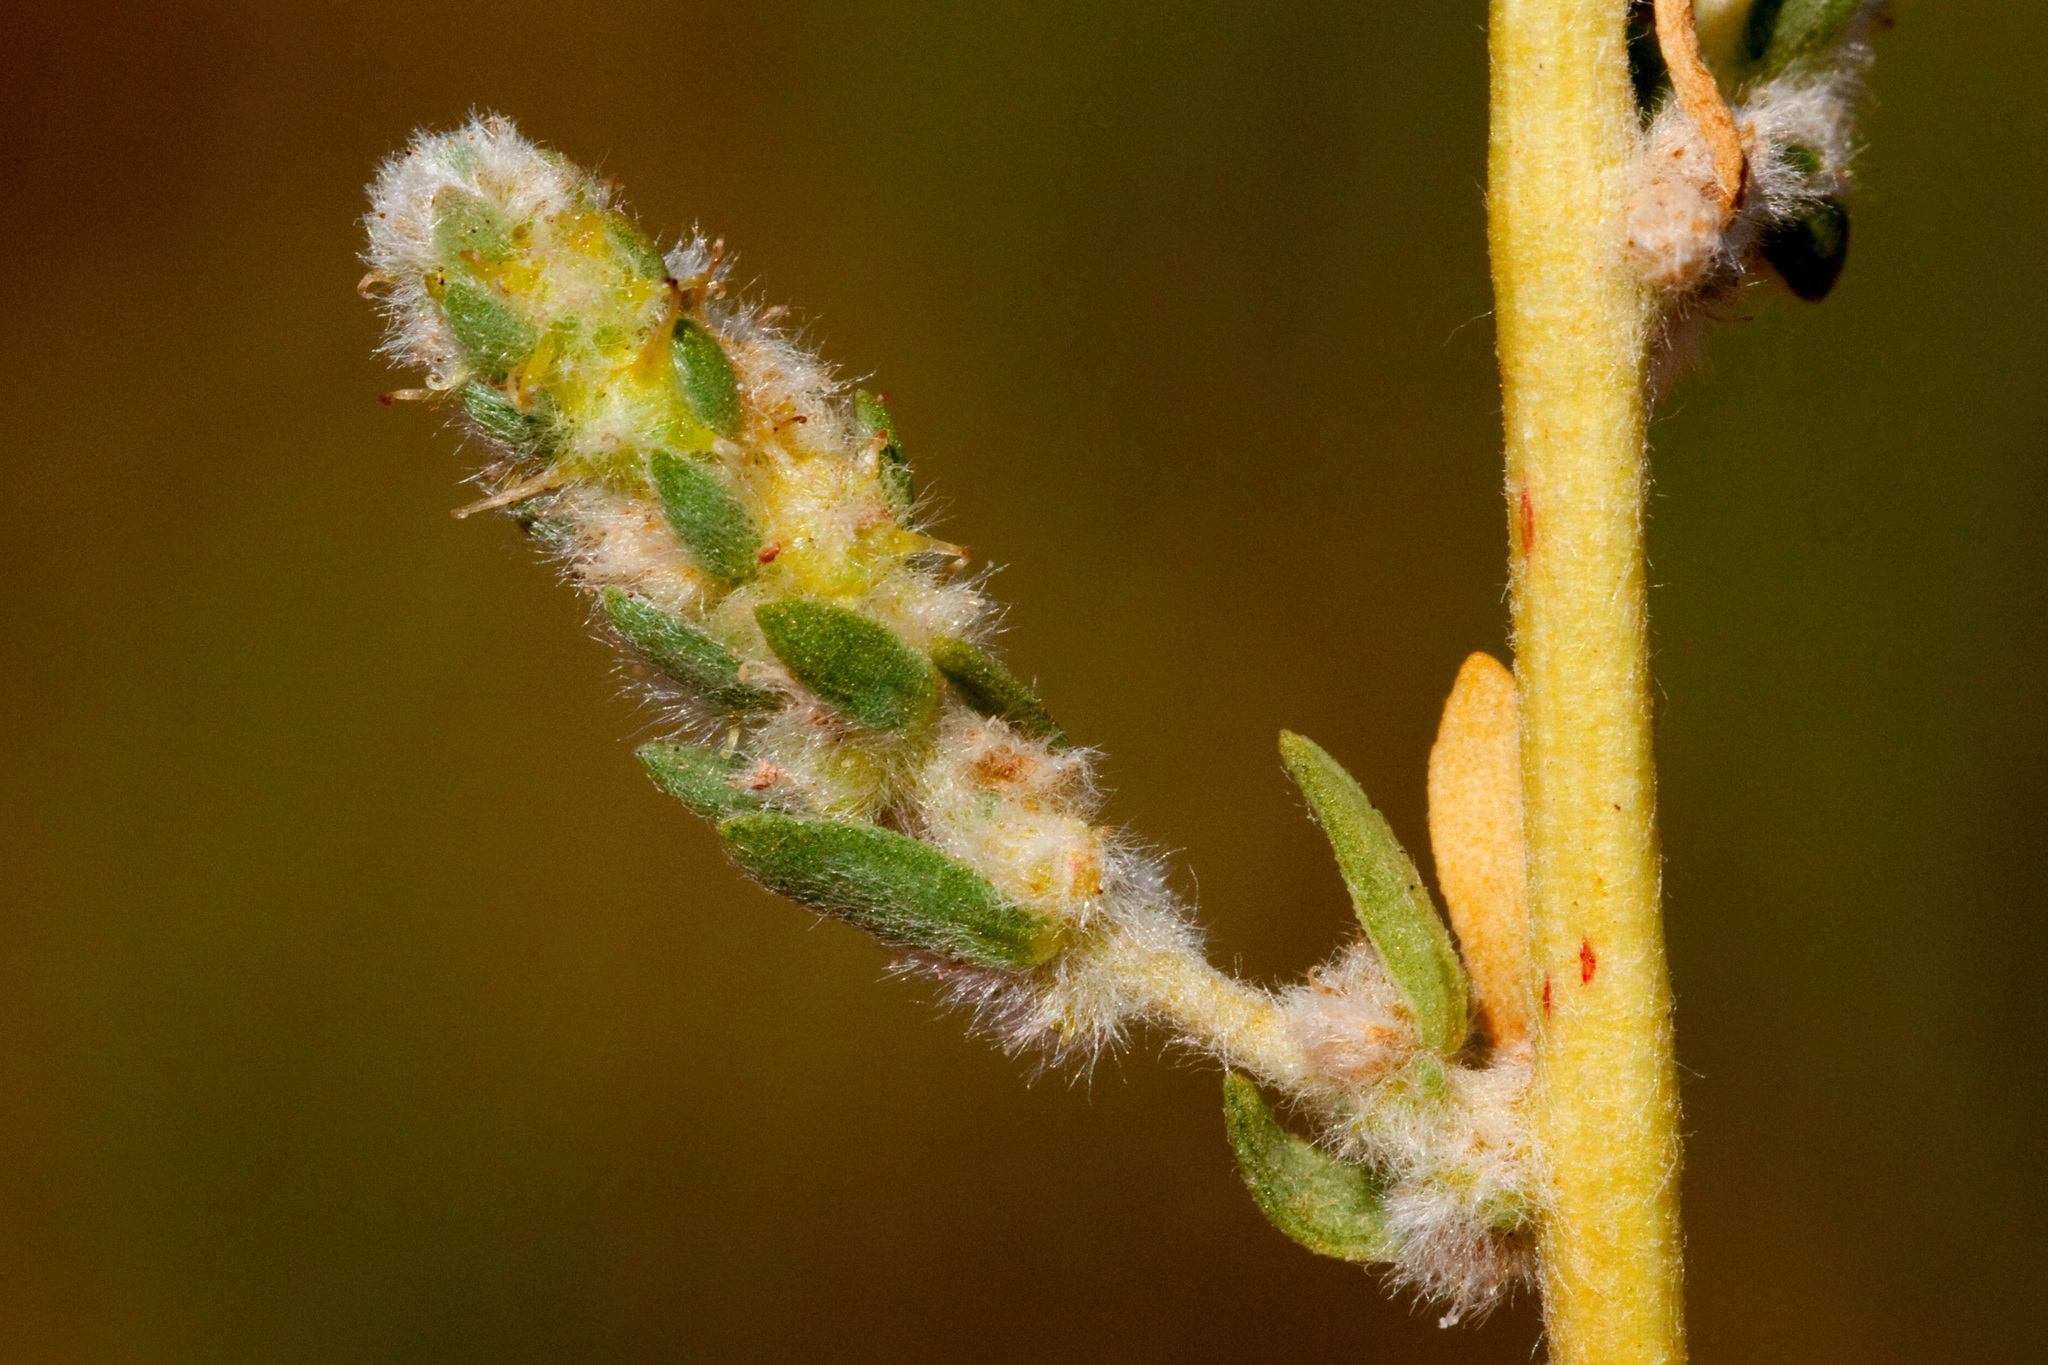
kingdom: Plantae
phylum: Tracheophyta
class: Magnoliopsida
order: Caryophyllales
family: Amaranthaceae
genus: Bassia
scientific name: Bassia hyssopifolia
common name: Fivehorn smotherweed
